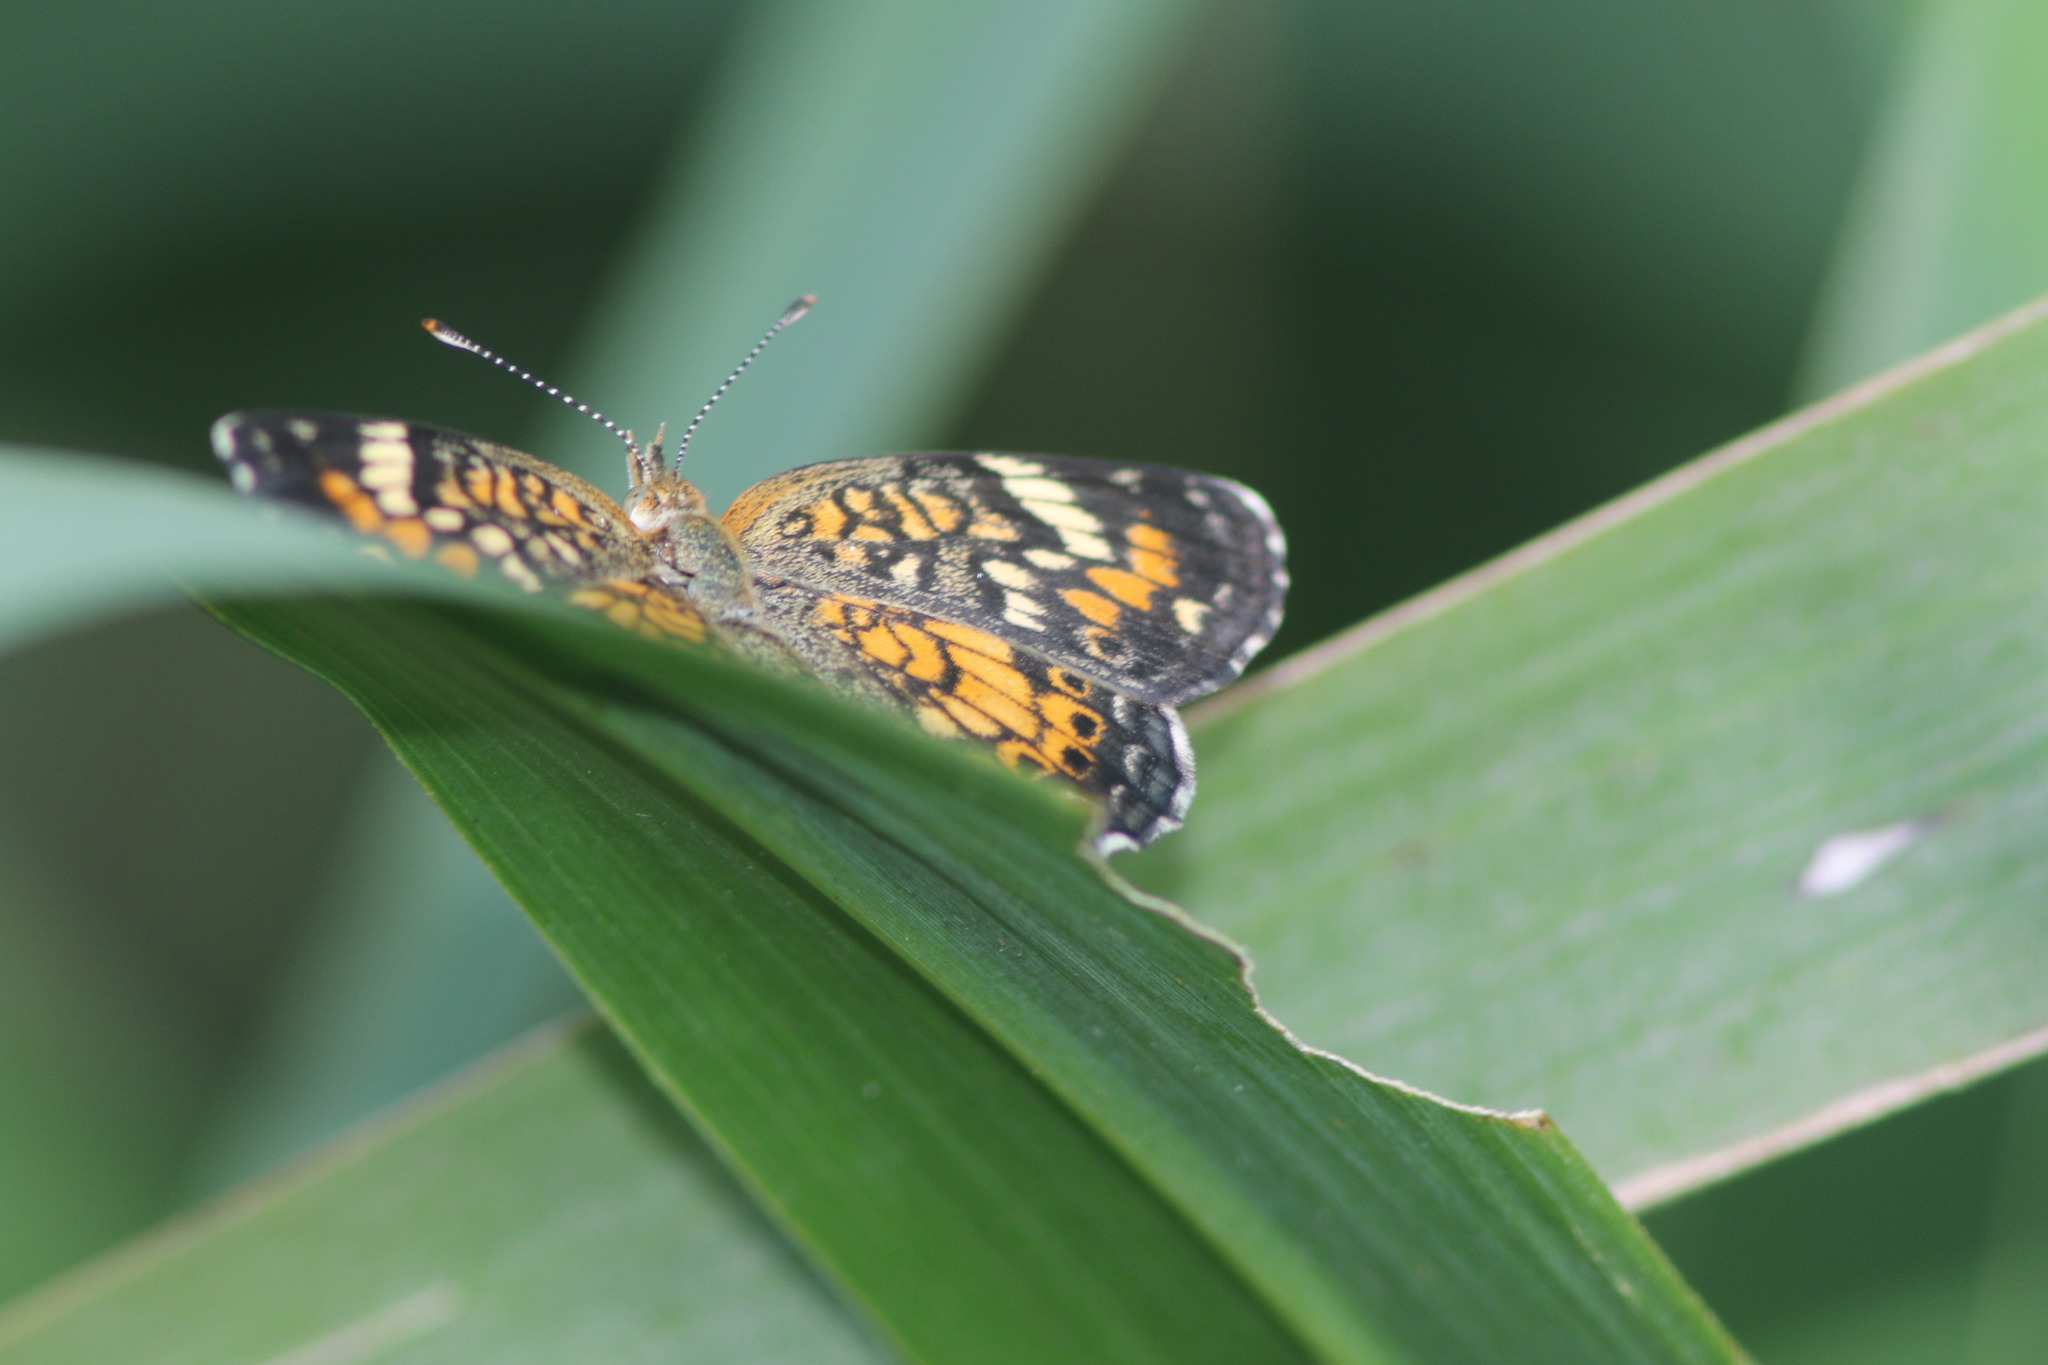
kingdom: Animalia
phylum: Arthropoda
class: Insecta
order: Lepidoptera
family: Nymphalidae
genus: Phyciodes
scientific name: Phyciodes phaon
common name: Phaon crescent
